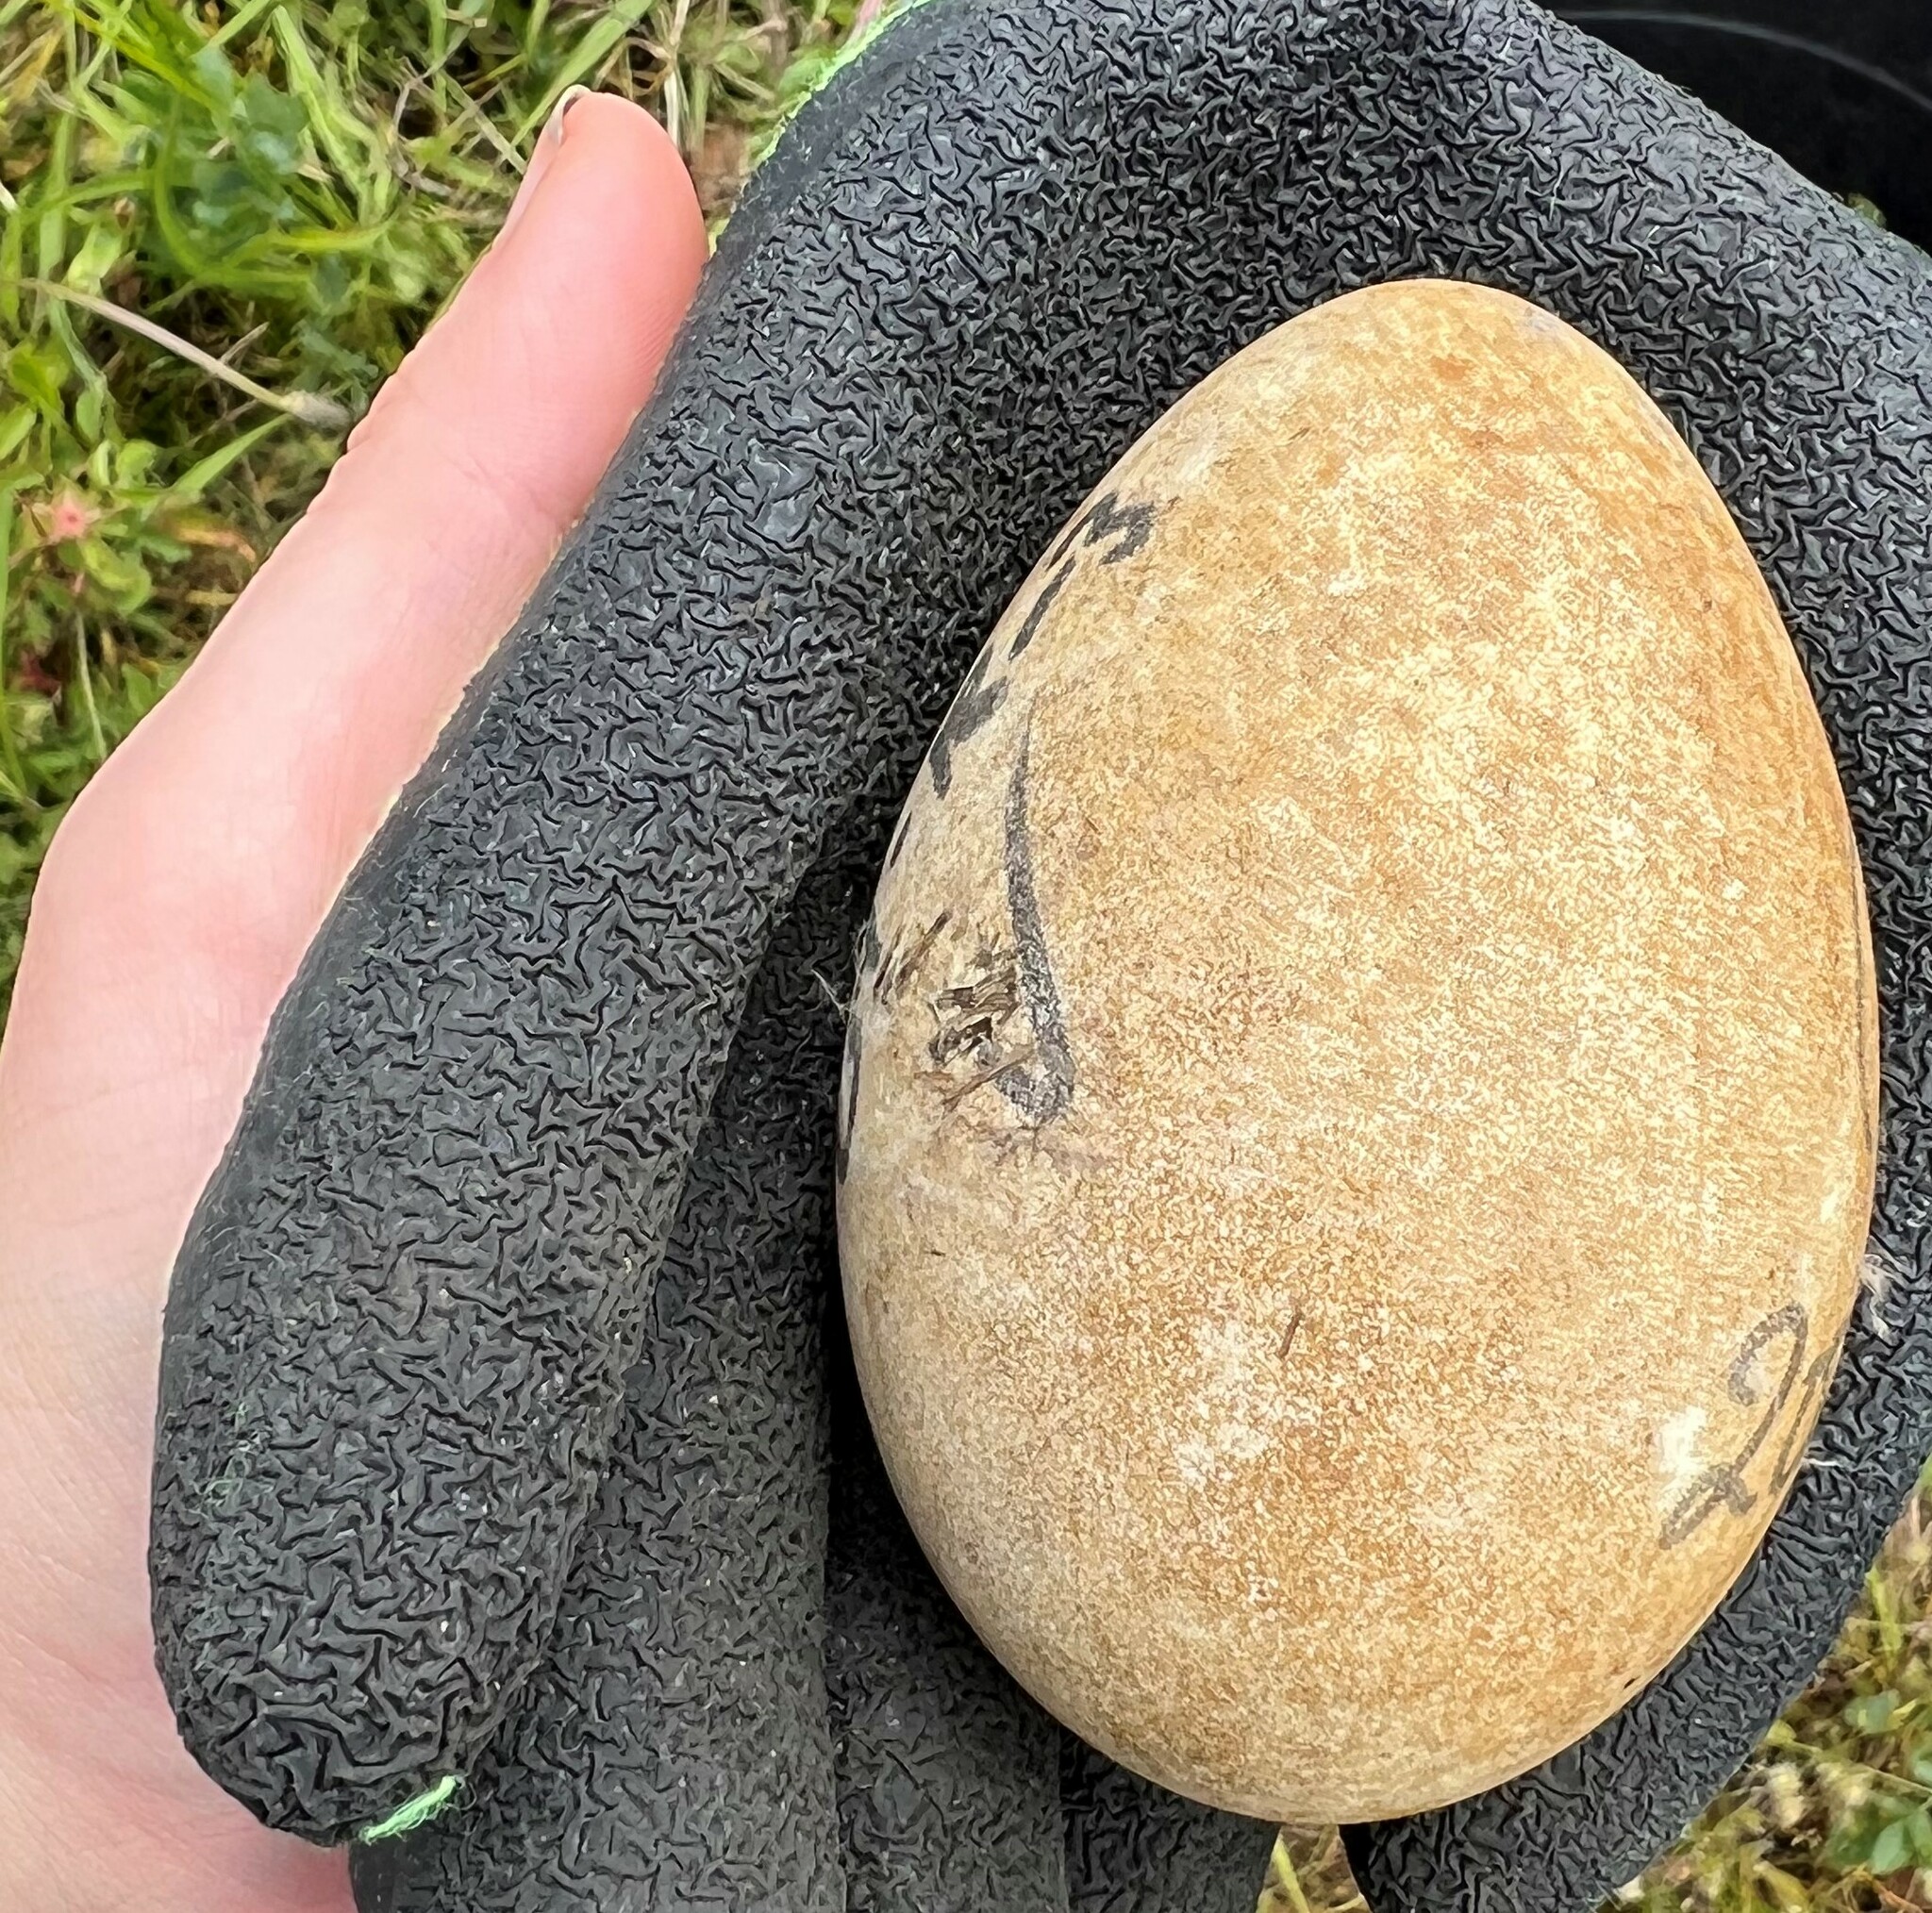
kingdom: Animalia
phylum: Chordata
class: Aves
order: Anseriformes
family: Anatidae
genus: Branta
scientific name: Branta canadensis
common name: Canada goose
